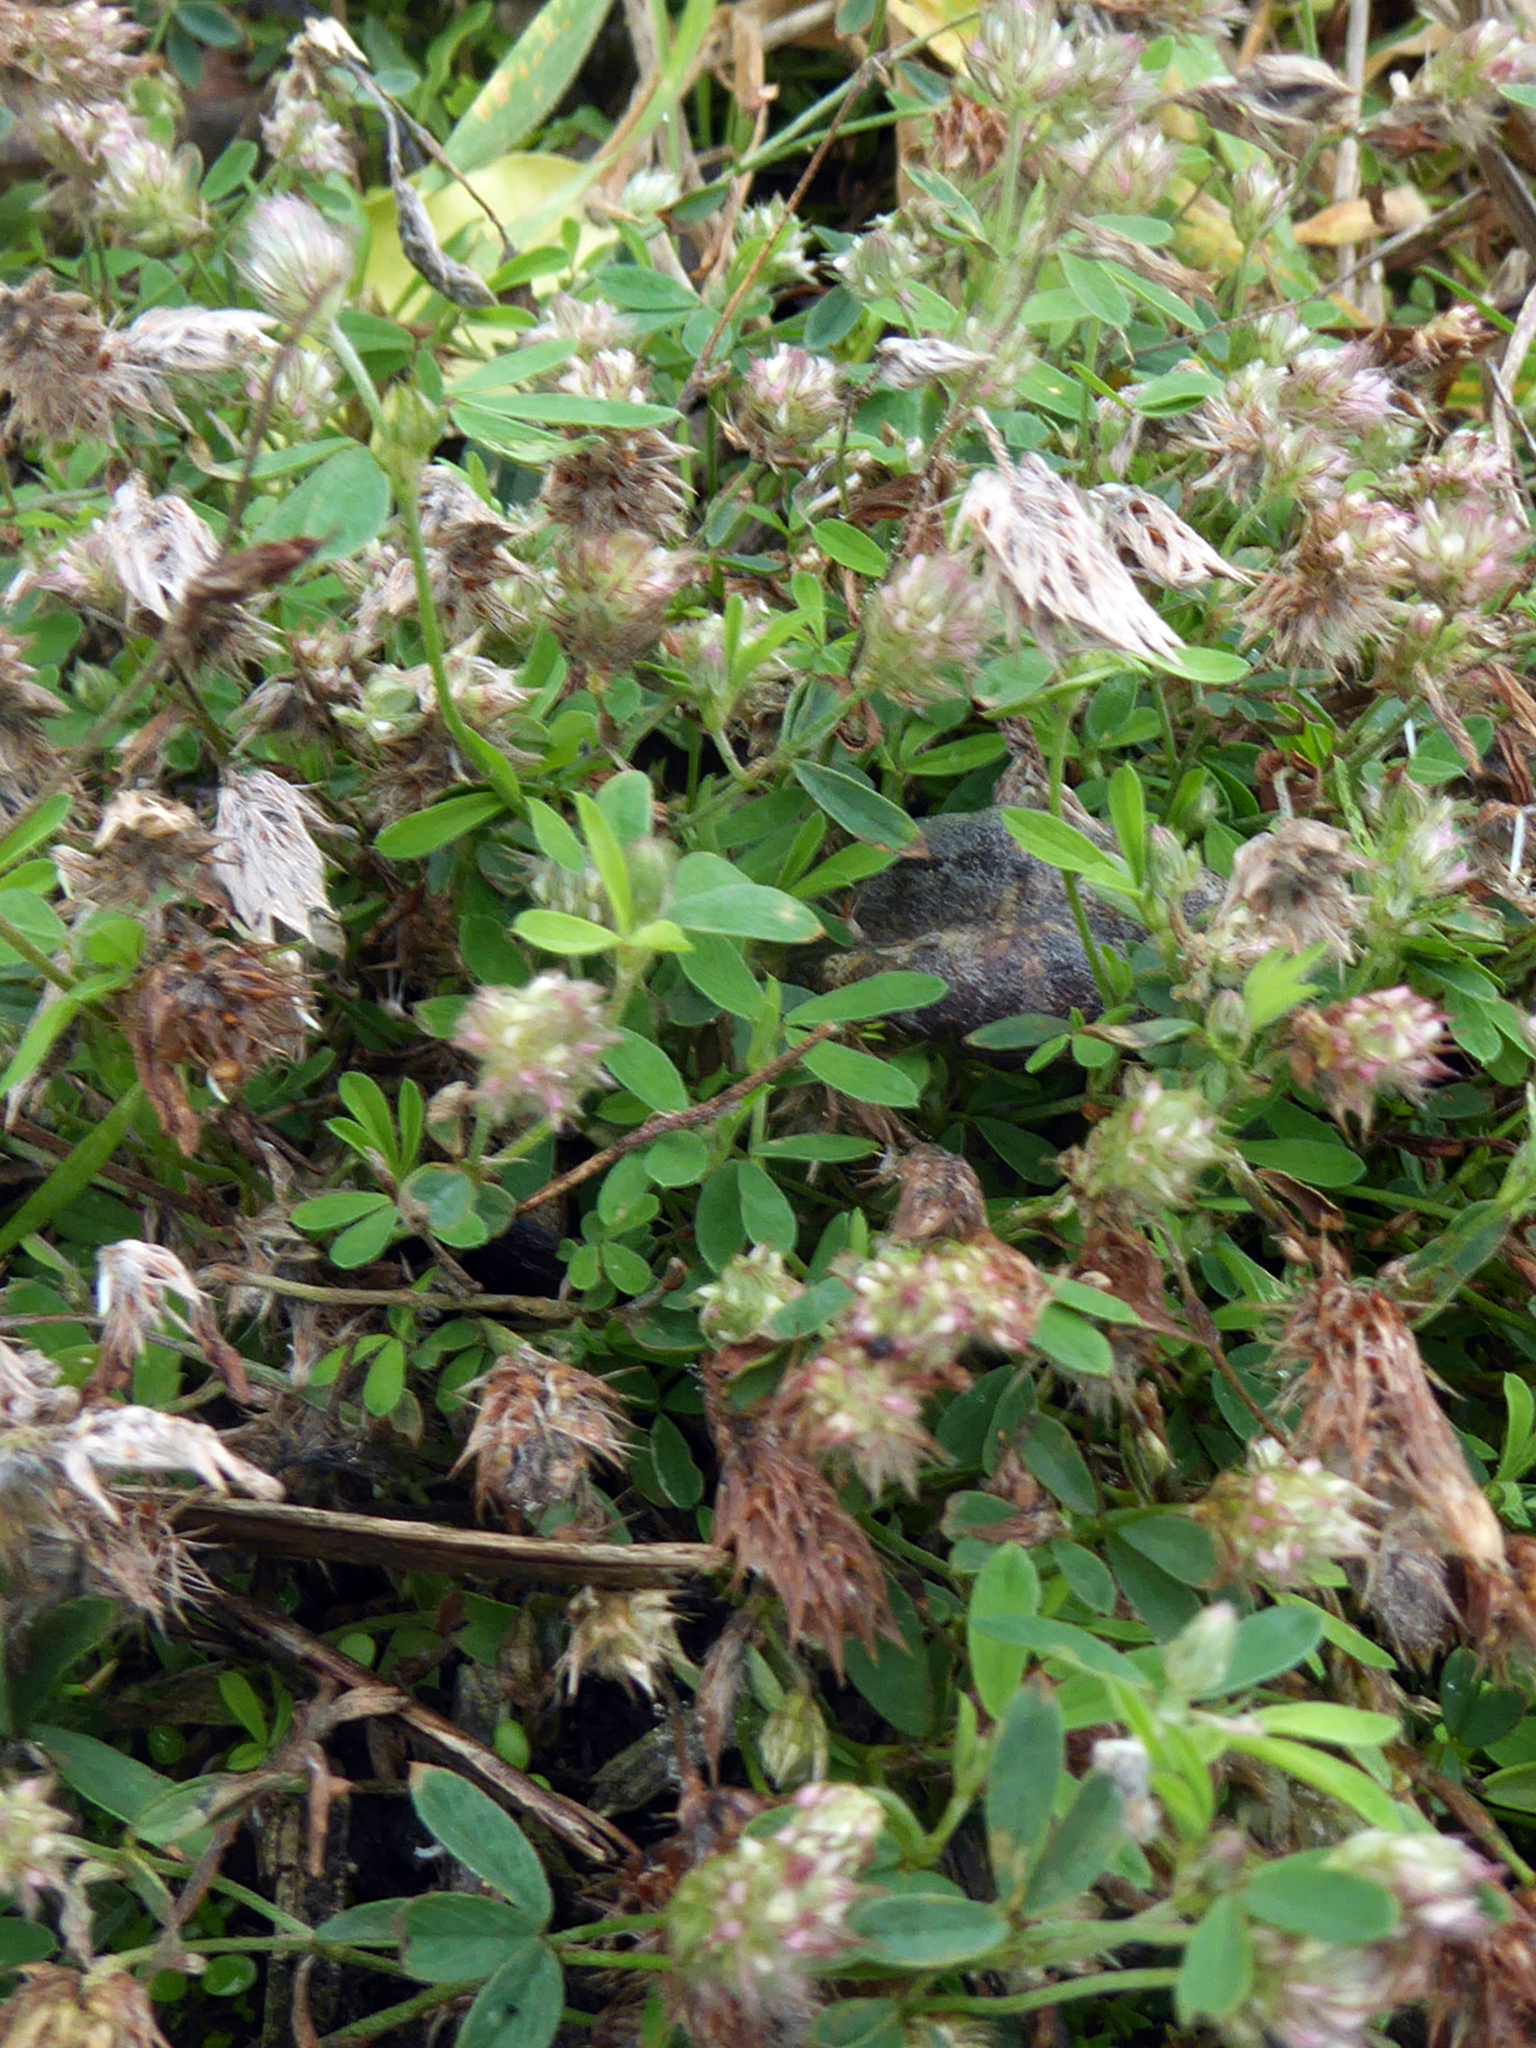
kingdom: Plantae
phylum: Tracheophyta
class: Magnoliopsida
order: Fabales
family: Fabaceae
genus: Trifolium
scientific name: Trifolium arvense
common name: Hare's-foot clover
